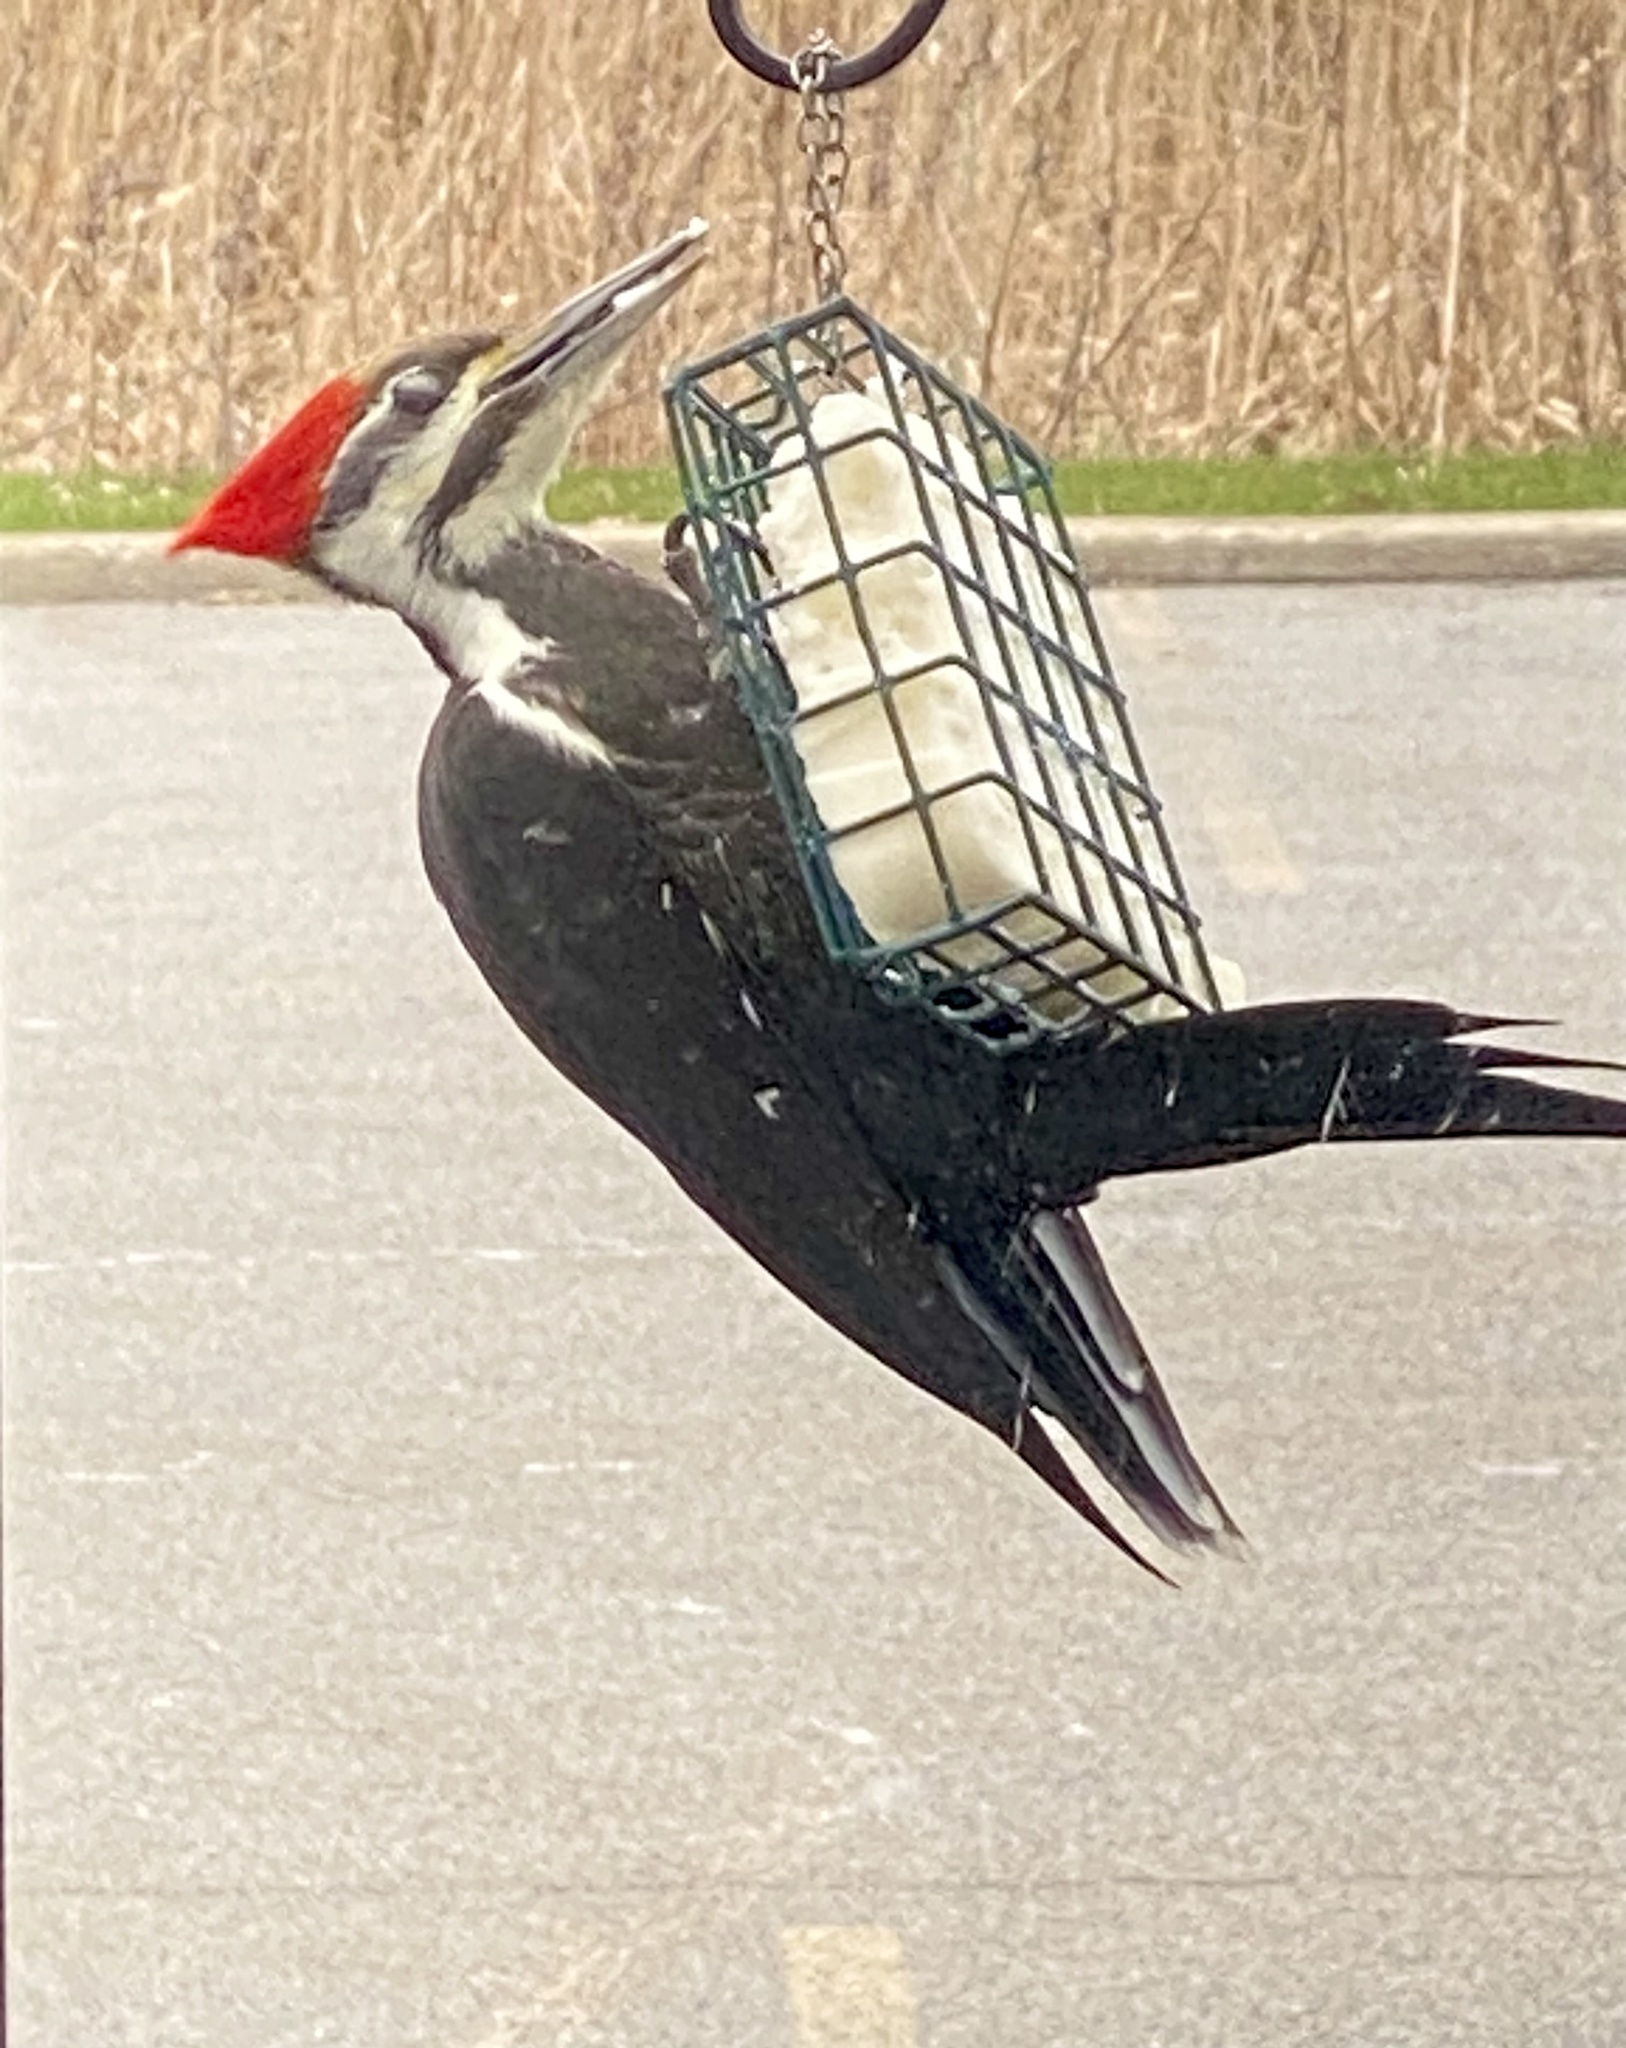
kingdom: Animalia
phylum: Chordata
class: Aves
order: Piciformes
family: Picidae
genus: Dryocopus
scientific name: Dryocopus pileatus
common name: Pileated woodpecker
